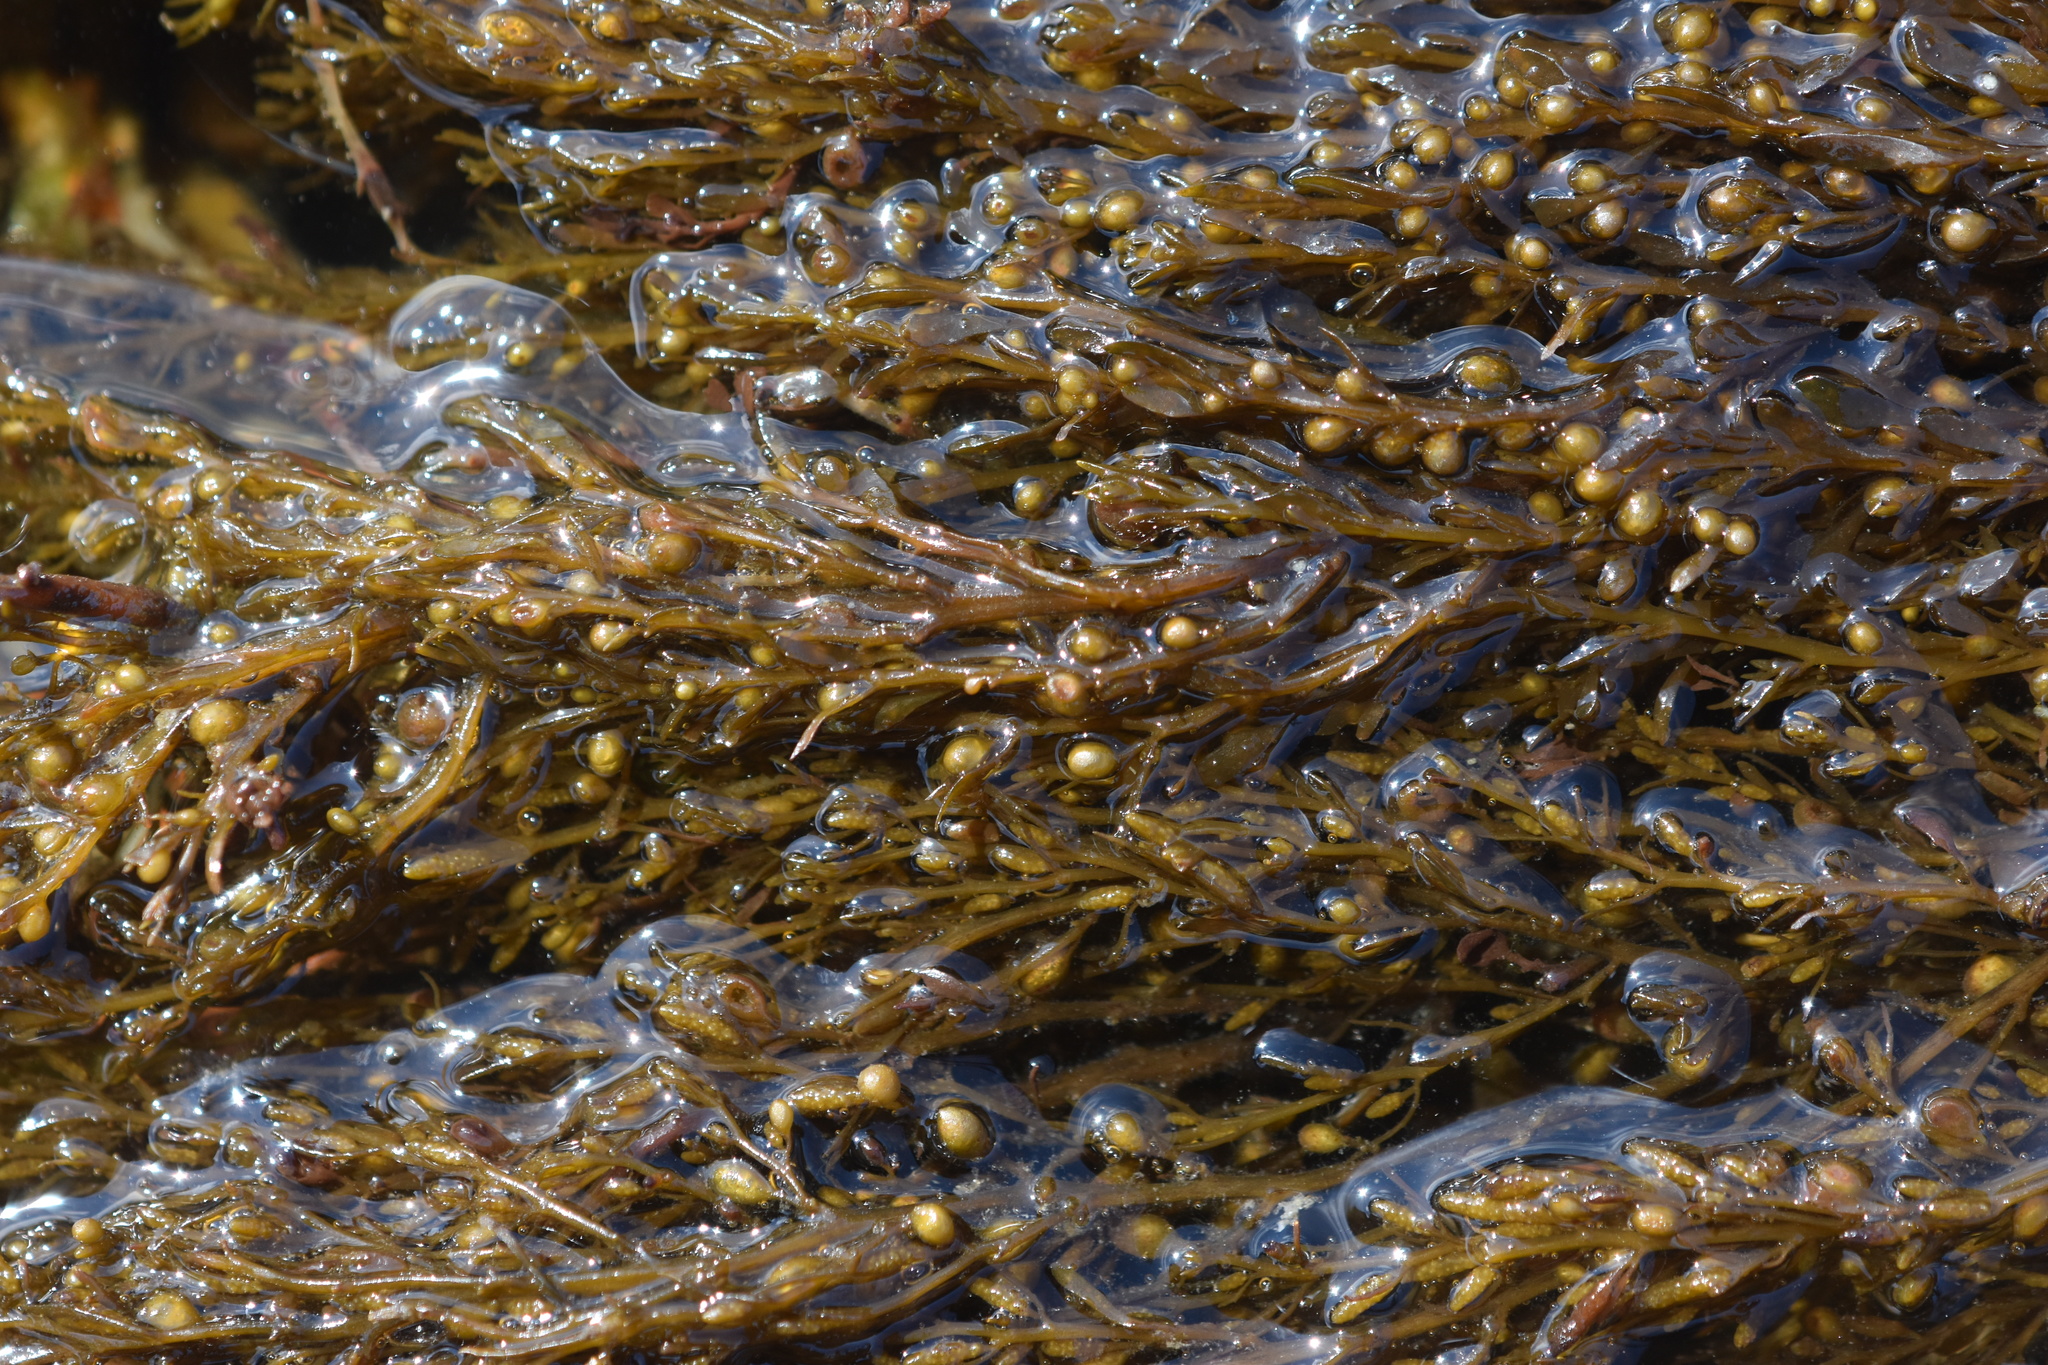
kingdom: Chromista
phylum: Ochrophyta
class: Phaeophyceae
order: Fucales
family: Sargassaceae
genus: Sargassum
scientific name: Sargassum muticum
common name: Japweed
